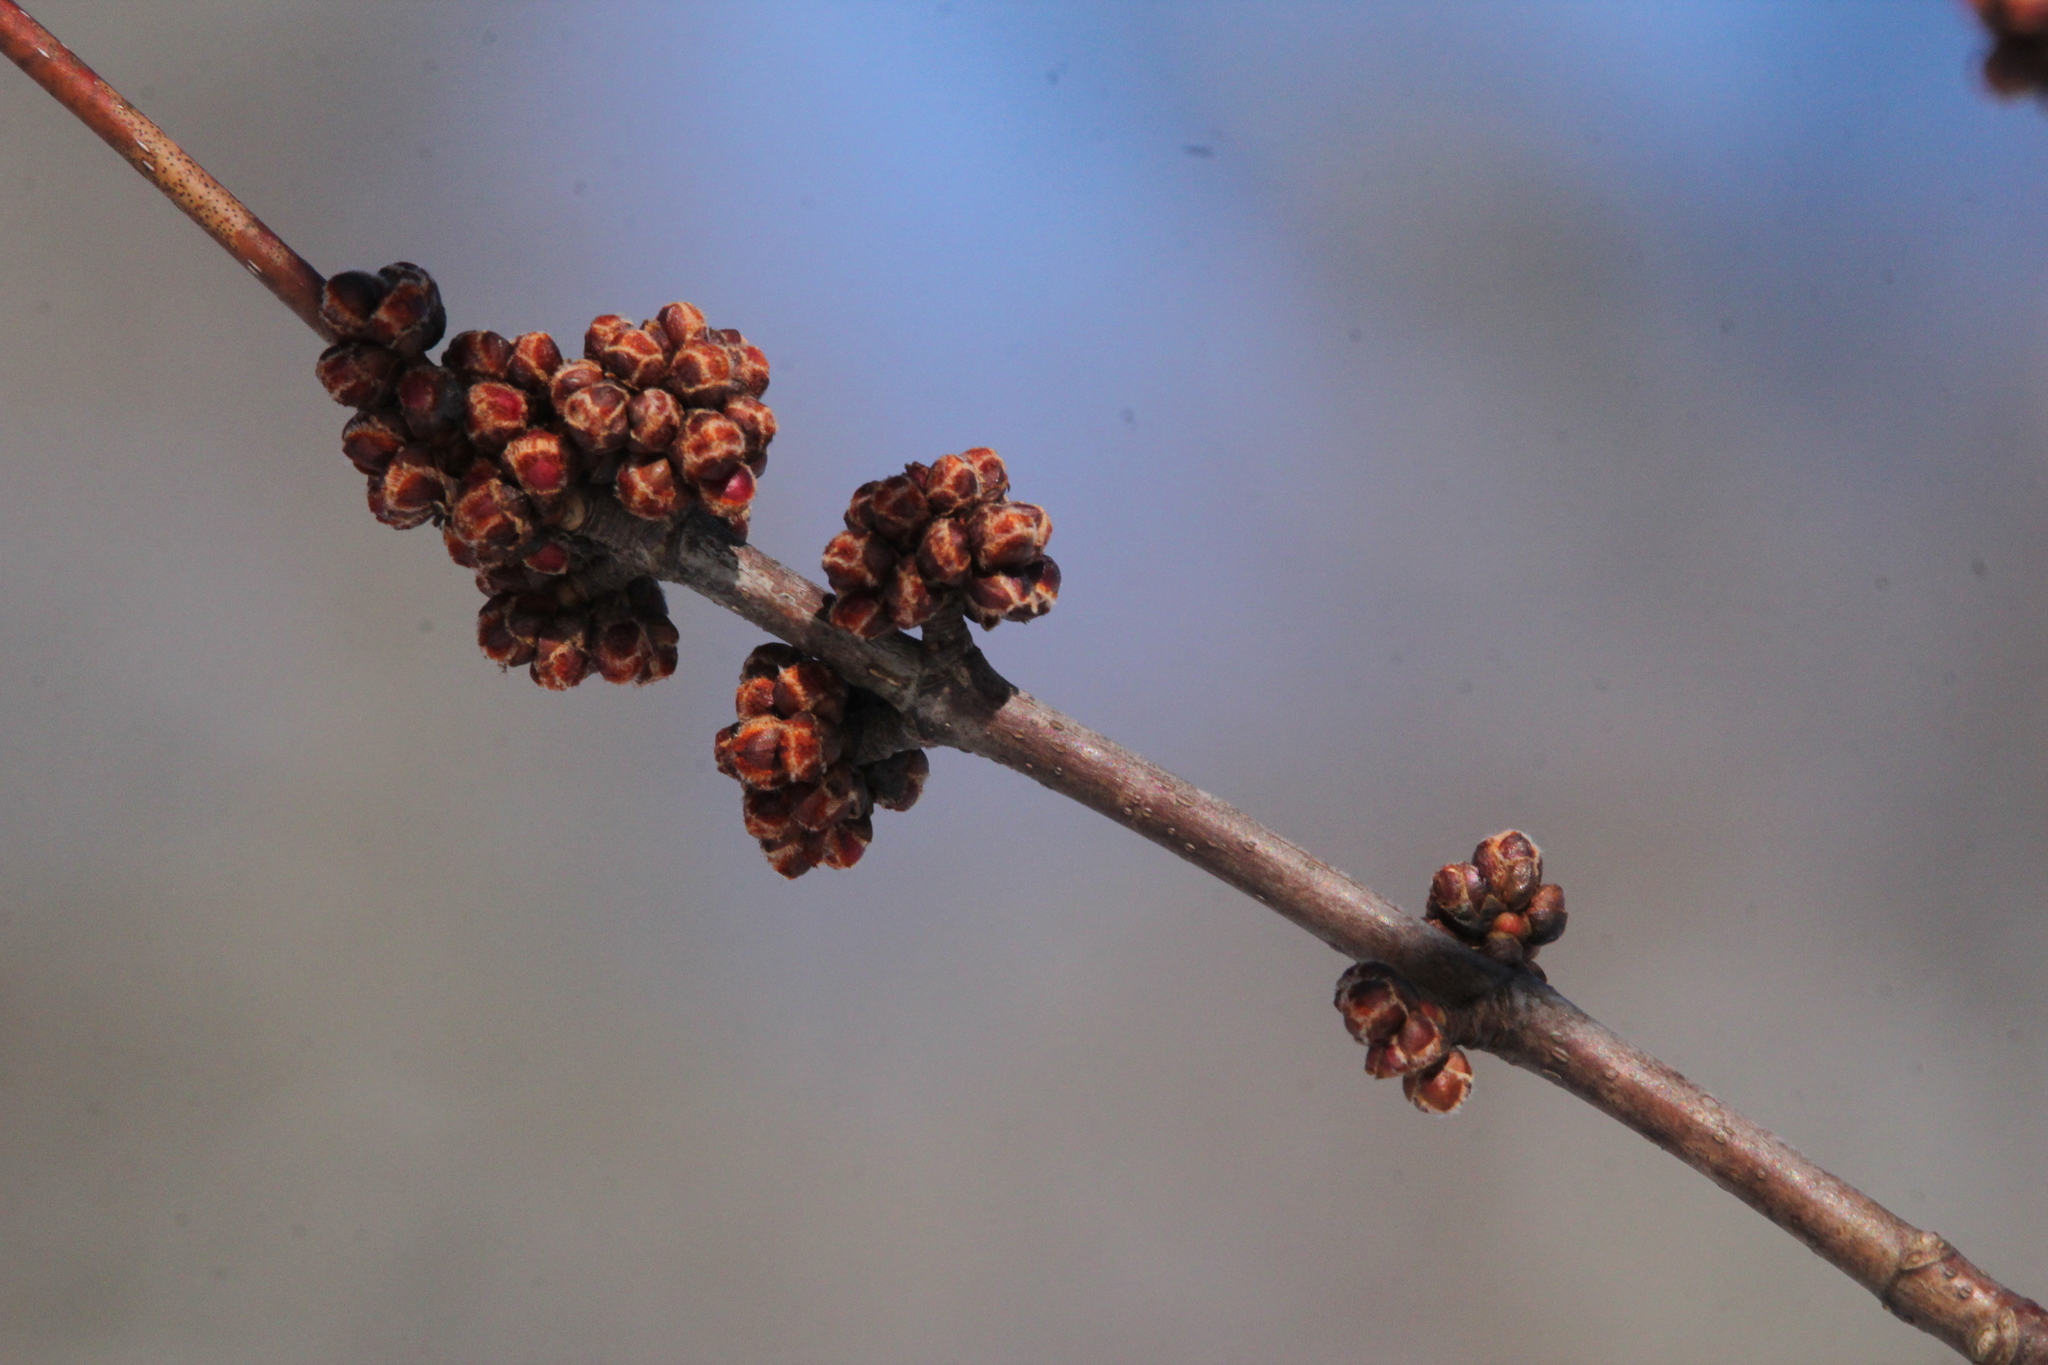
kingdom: Plantae
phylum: Tracheophyta
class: Magnoliopsida
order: Sapindales
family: Sapindaceae
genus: Acer
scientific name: Acer saccharinum
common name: Silver maple
